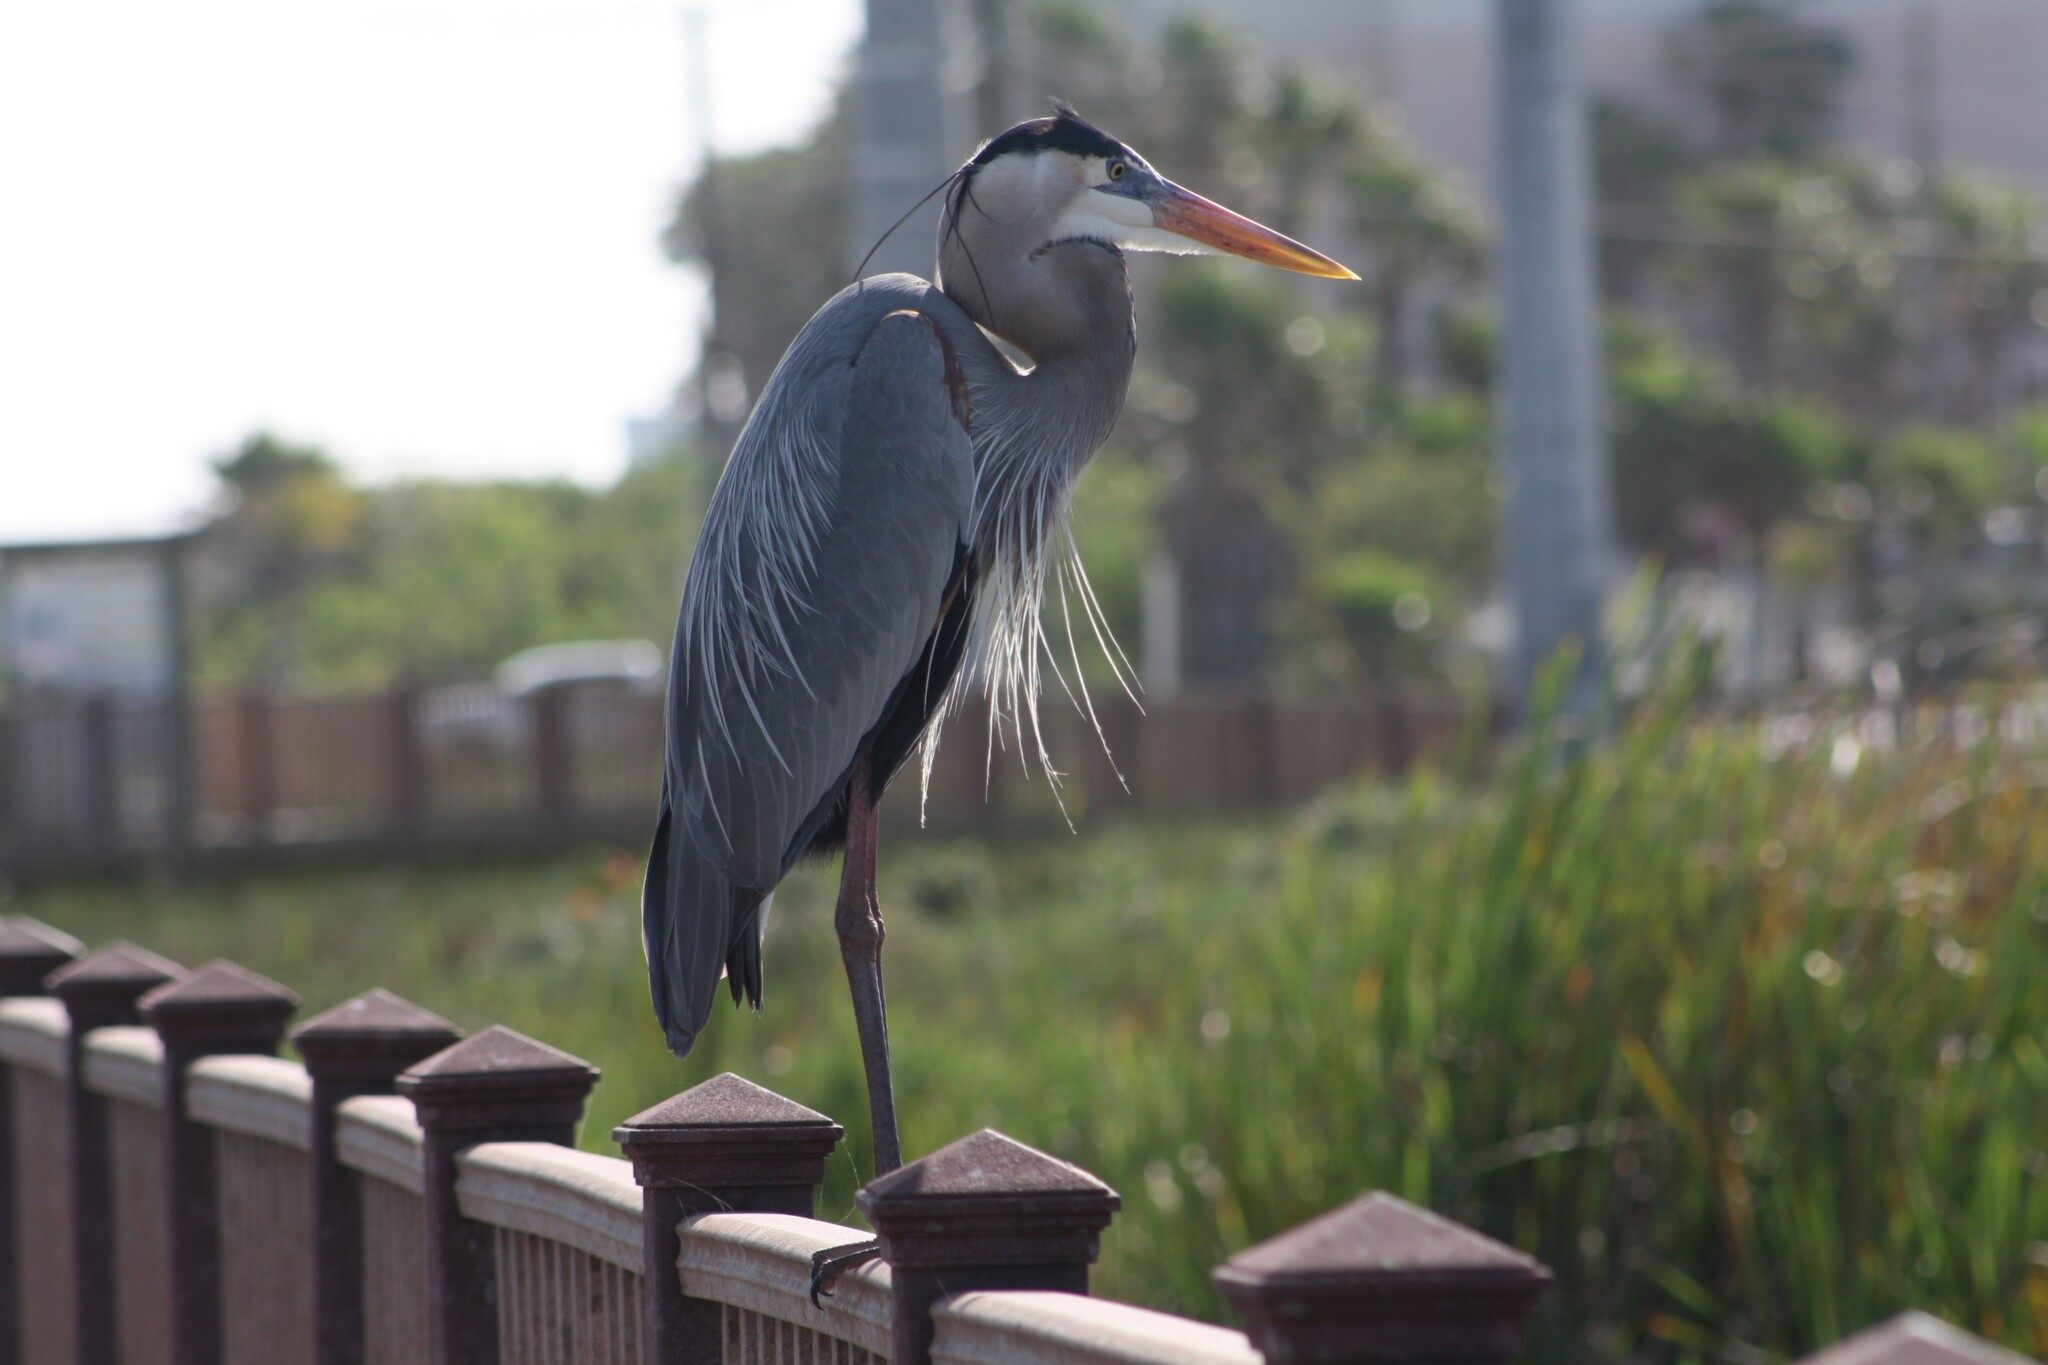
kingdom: Animalia
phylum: Chordata
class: Aves
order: Pelecaniformes
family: Ardeidae
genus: Ardea
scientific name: Ardea herodias
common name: Great blue heron
